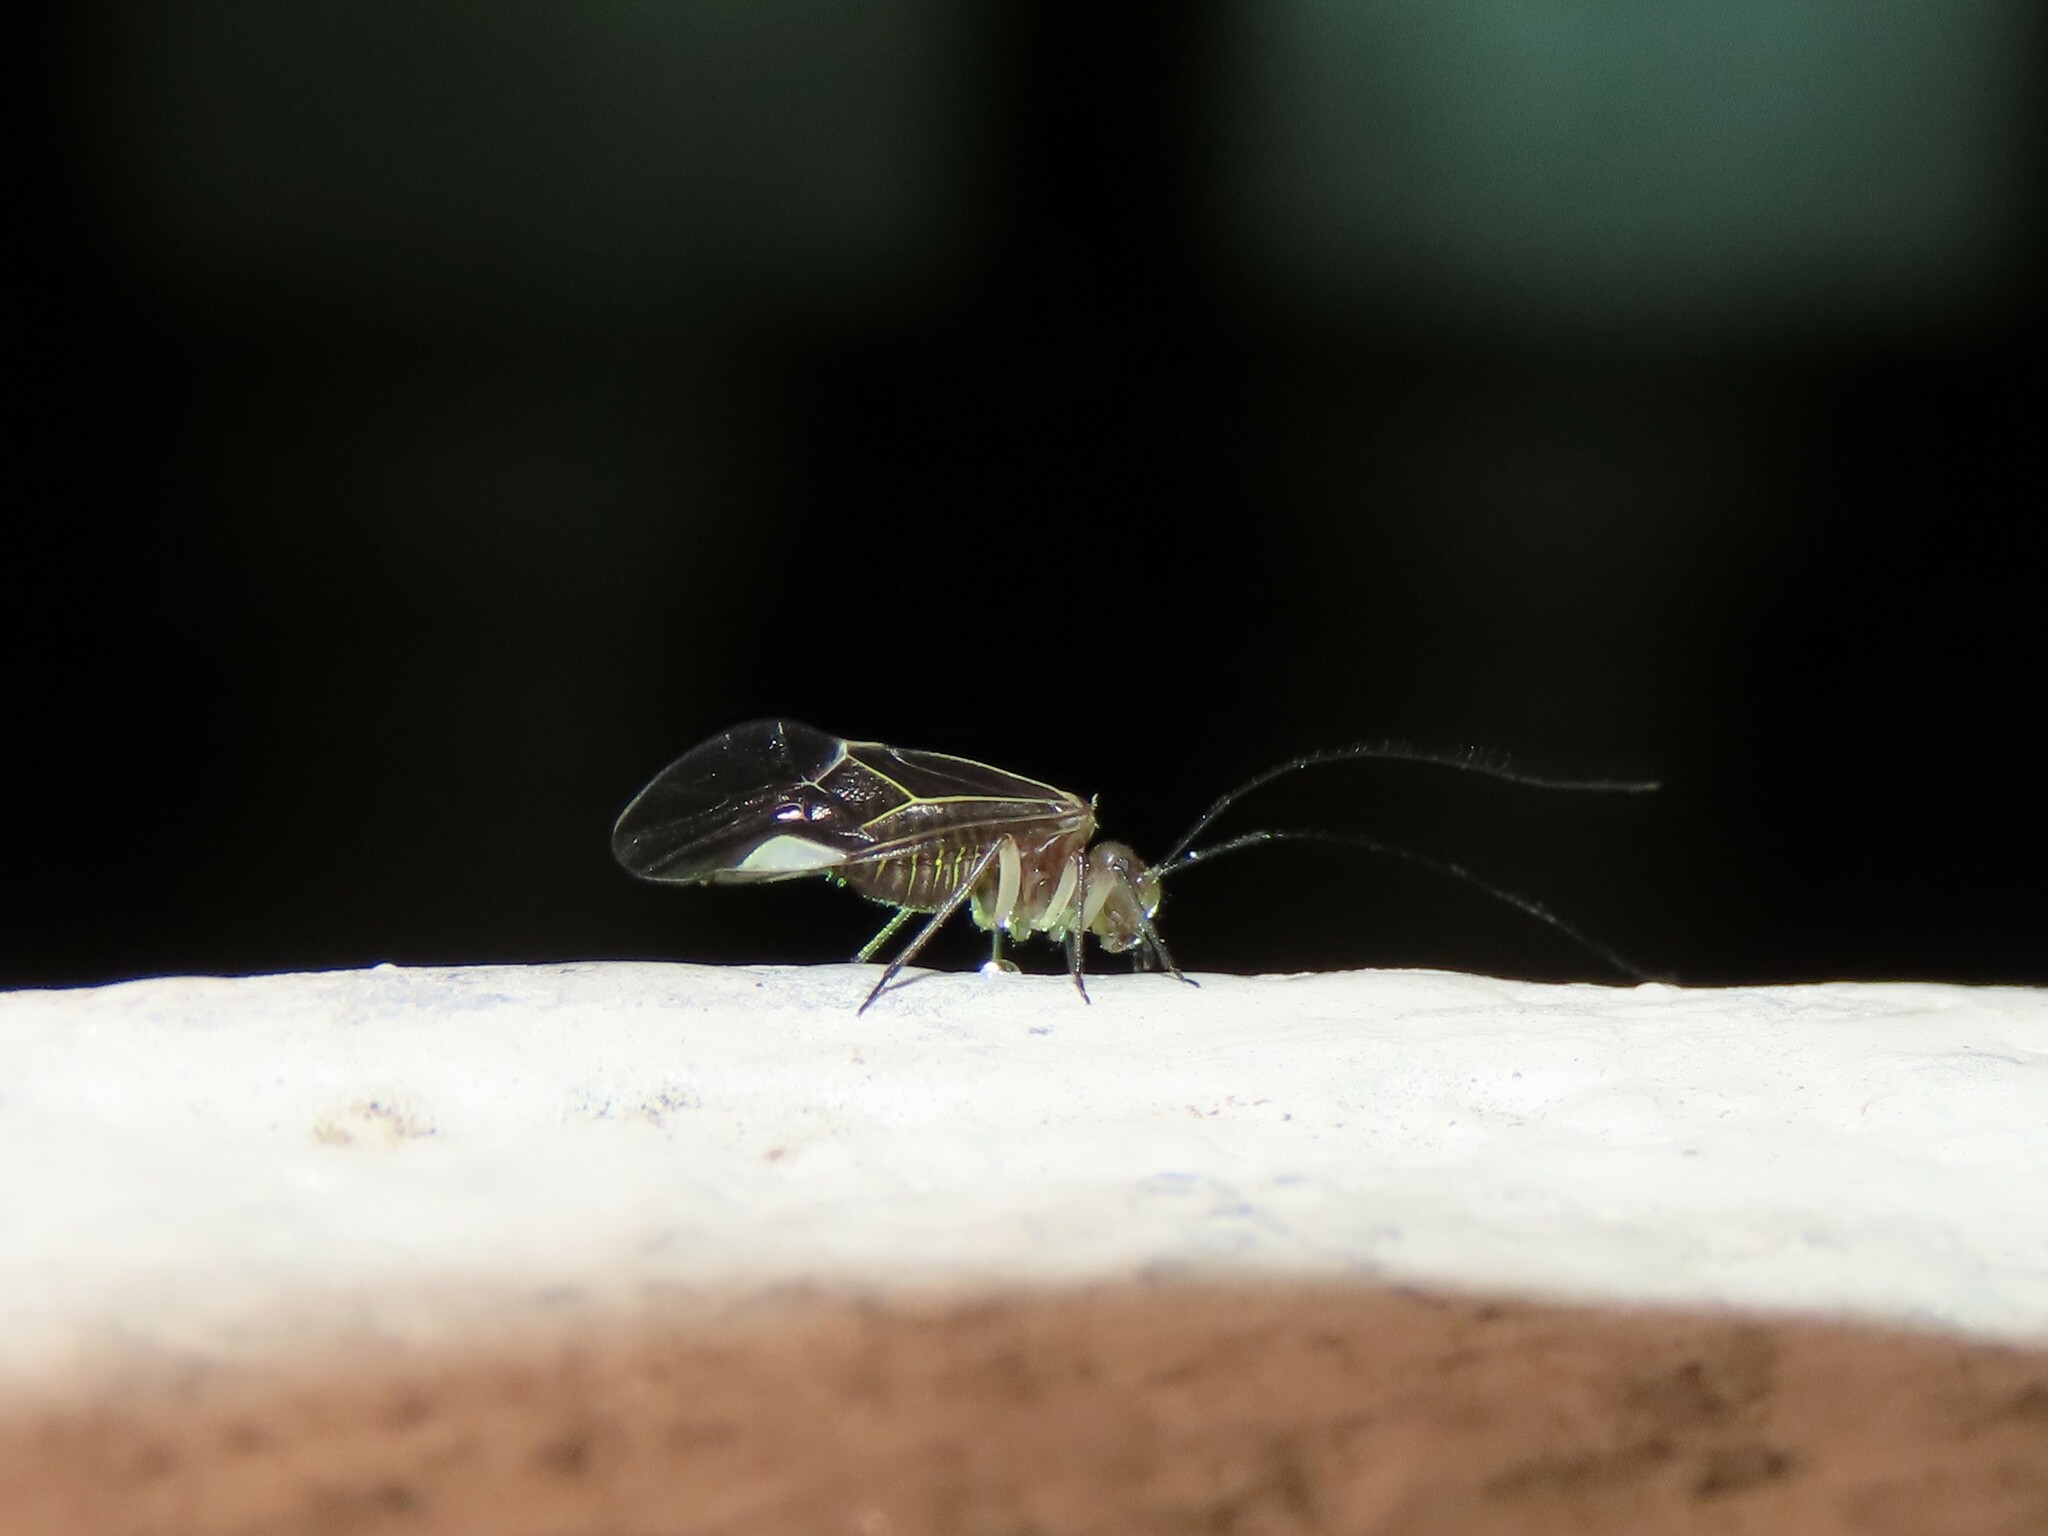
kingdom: Animalia
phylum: Arthropoda
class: Insecta
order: Psocodea
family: Psocidae
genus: Cerastipsocus
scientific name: Cerastipsocus venosus
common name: Tree cattle
